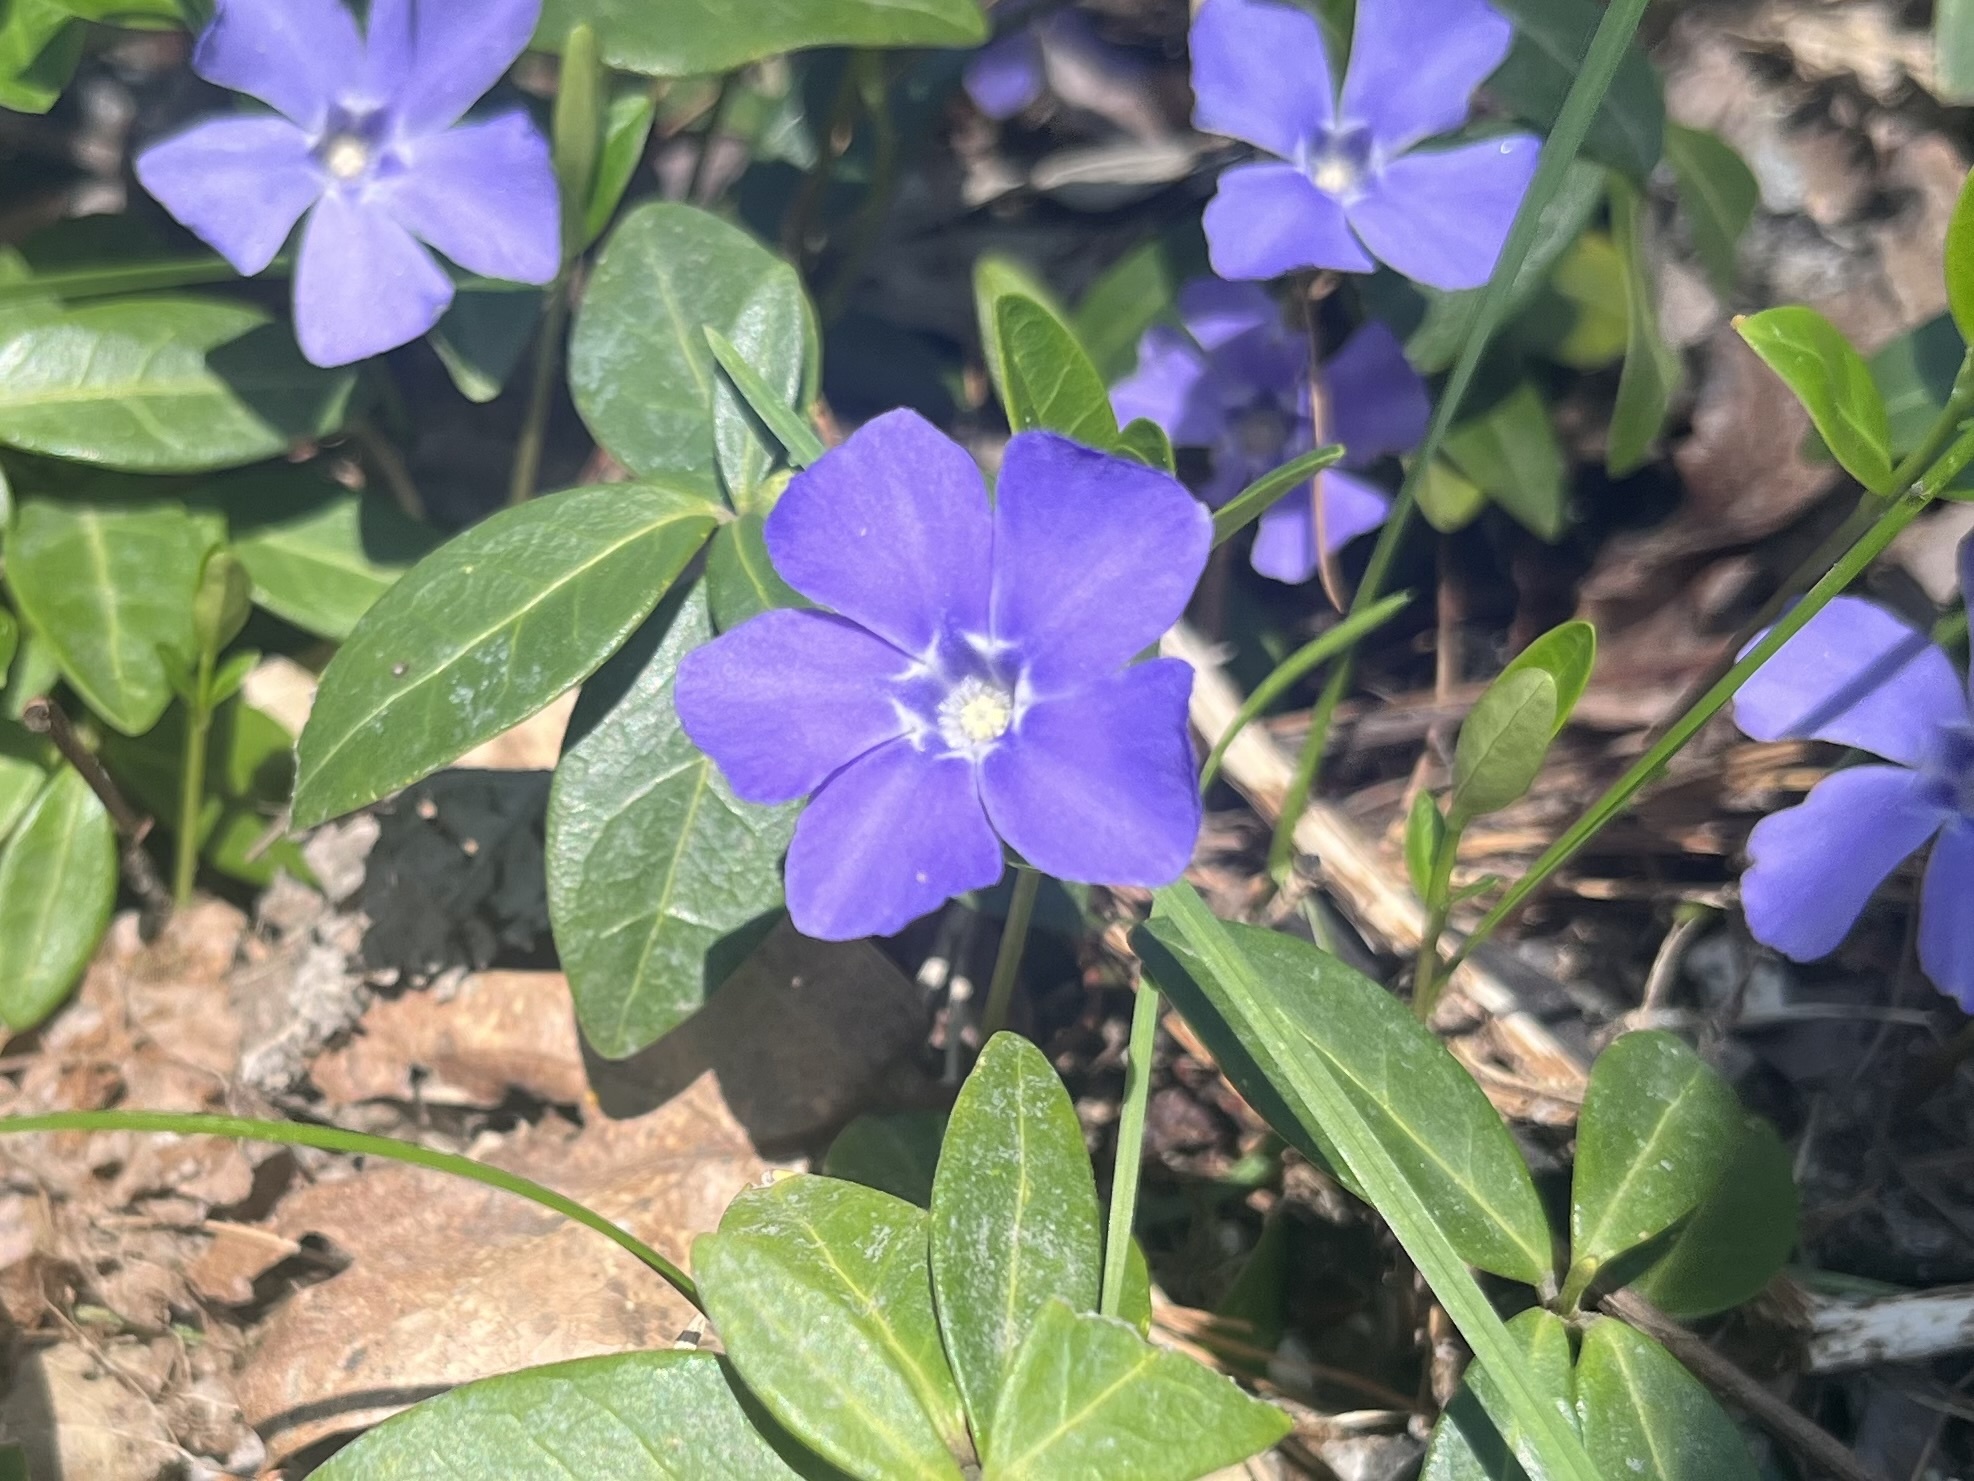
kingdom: Plantae
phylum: Tracheophyta
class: Magnoliopsida
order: Gentianales
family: Apocynaceae
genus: Vinca
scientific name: Vinca minor
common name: Lesser periwinkle
